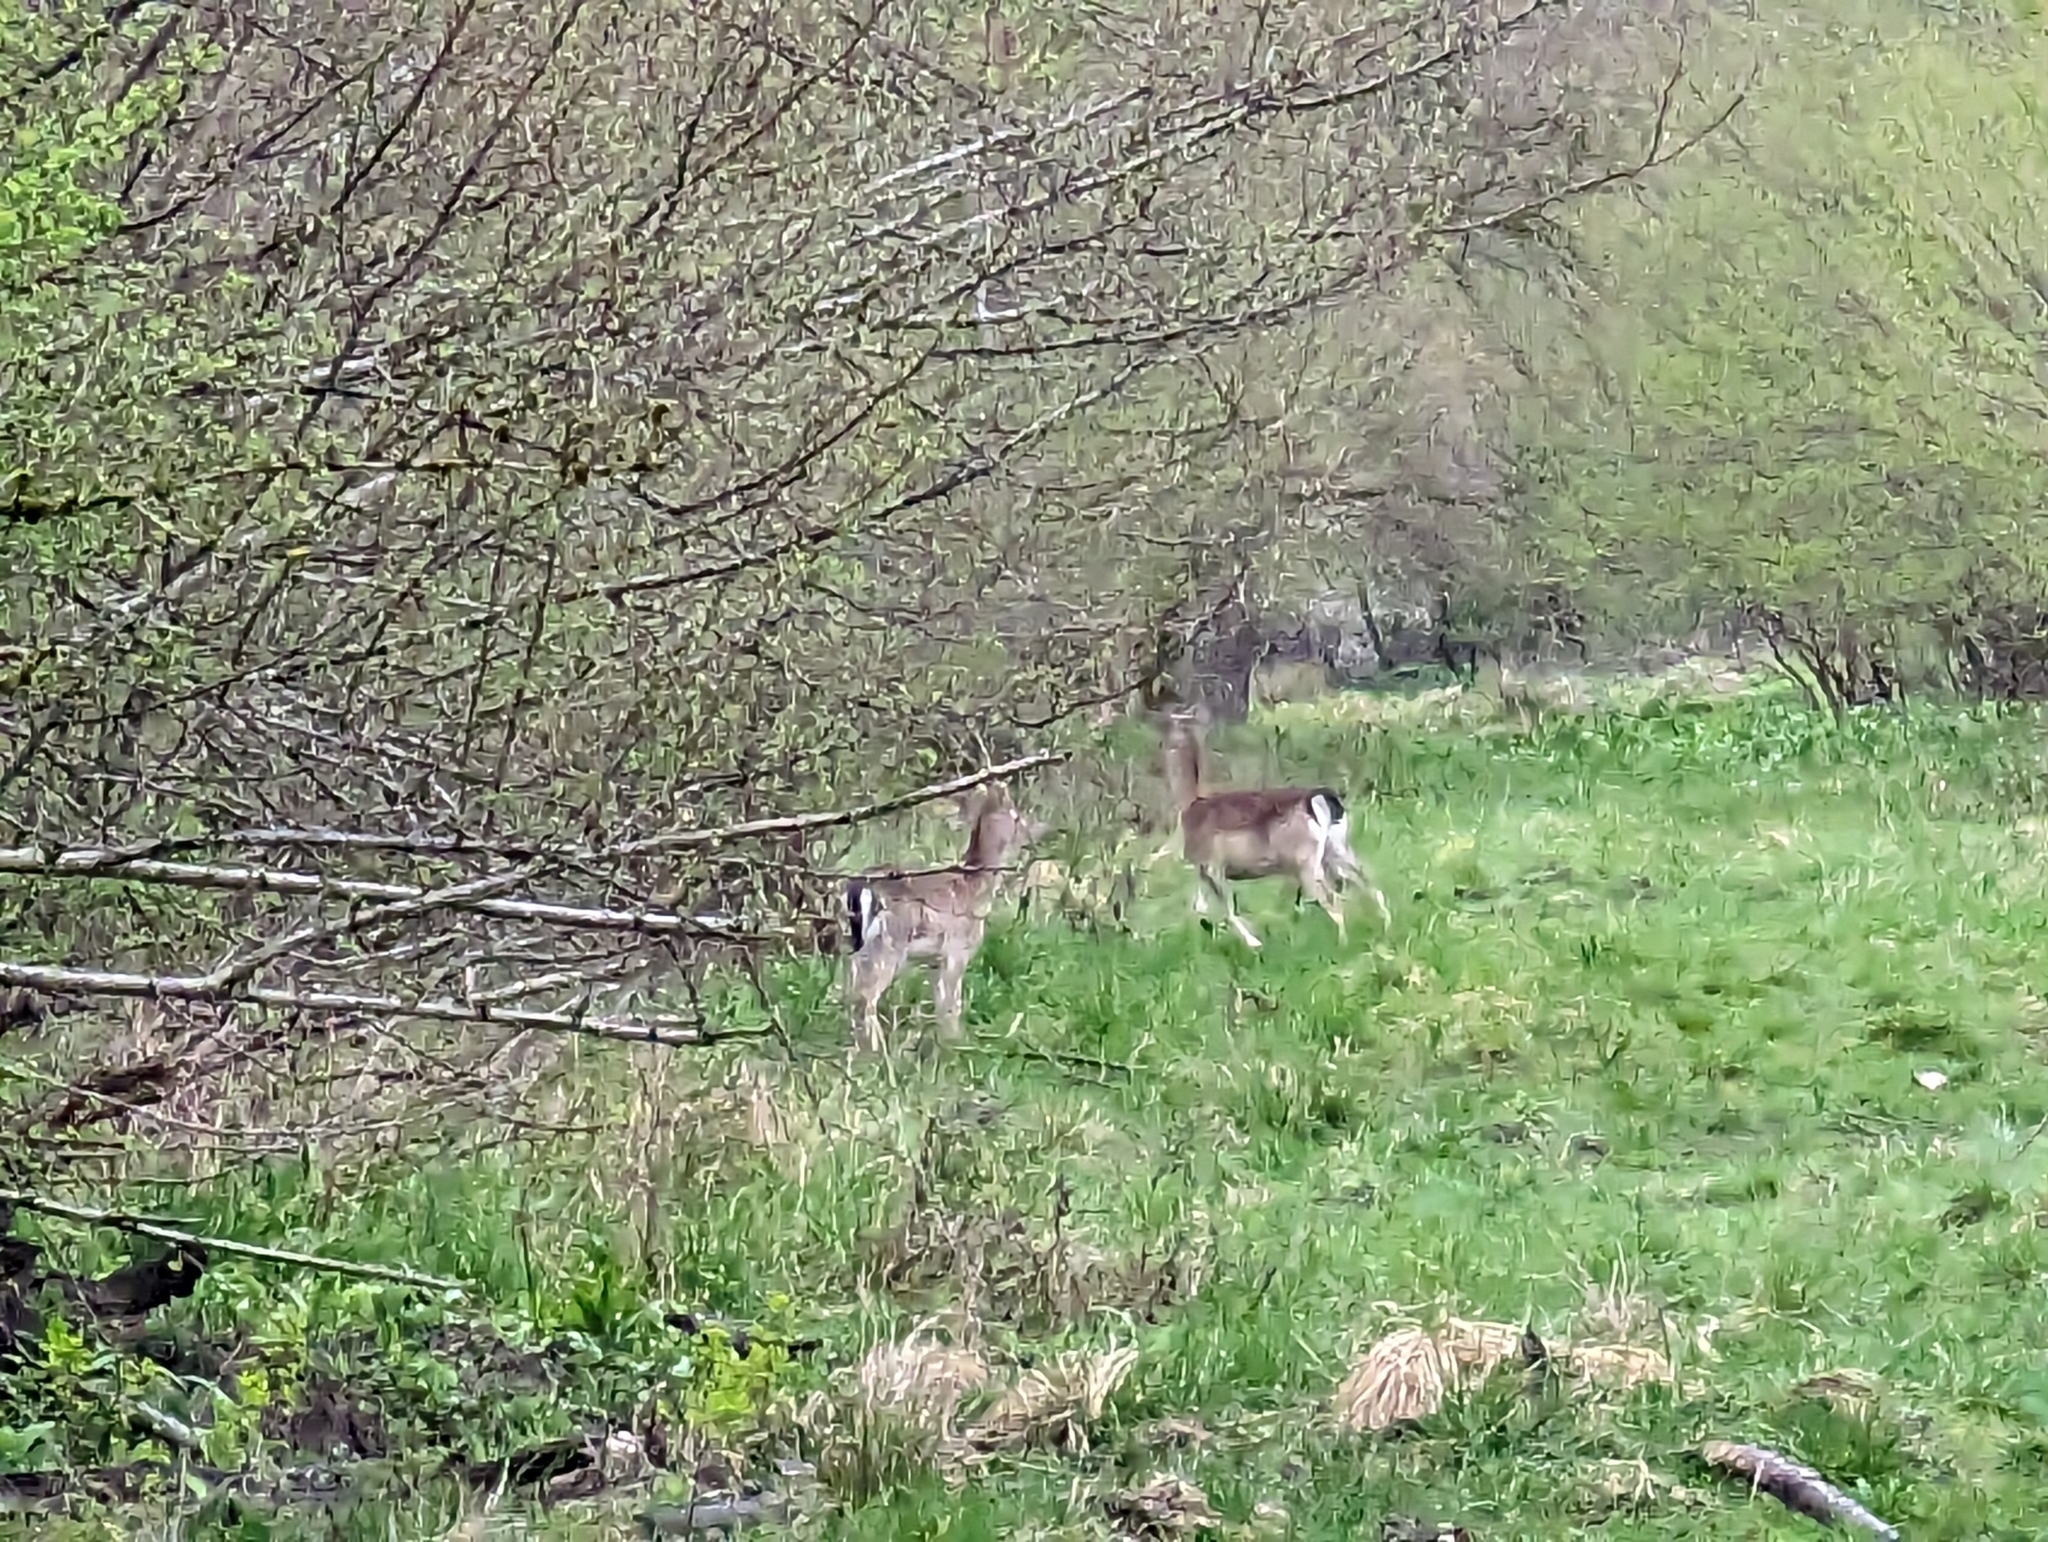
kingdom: Animalia
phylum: Chordata
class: Mammalia
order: Artiodactyla
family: Cervidae
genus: Dama
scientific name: Dama dama
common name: Fallow deer
